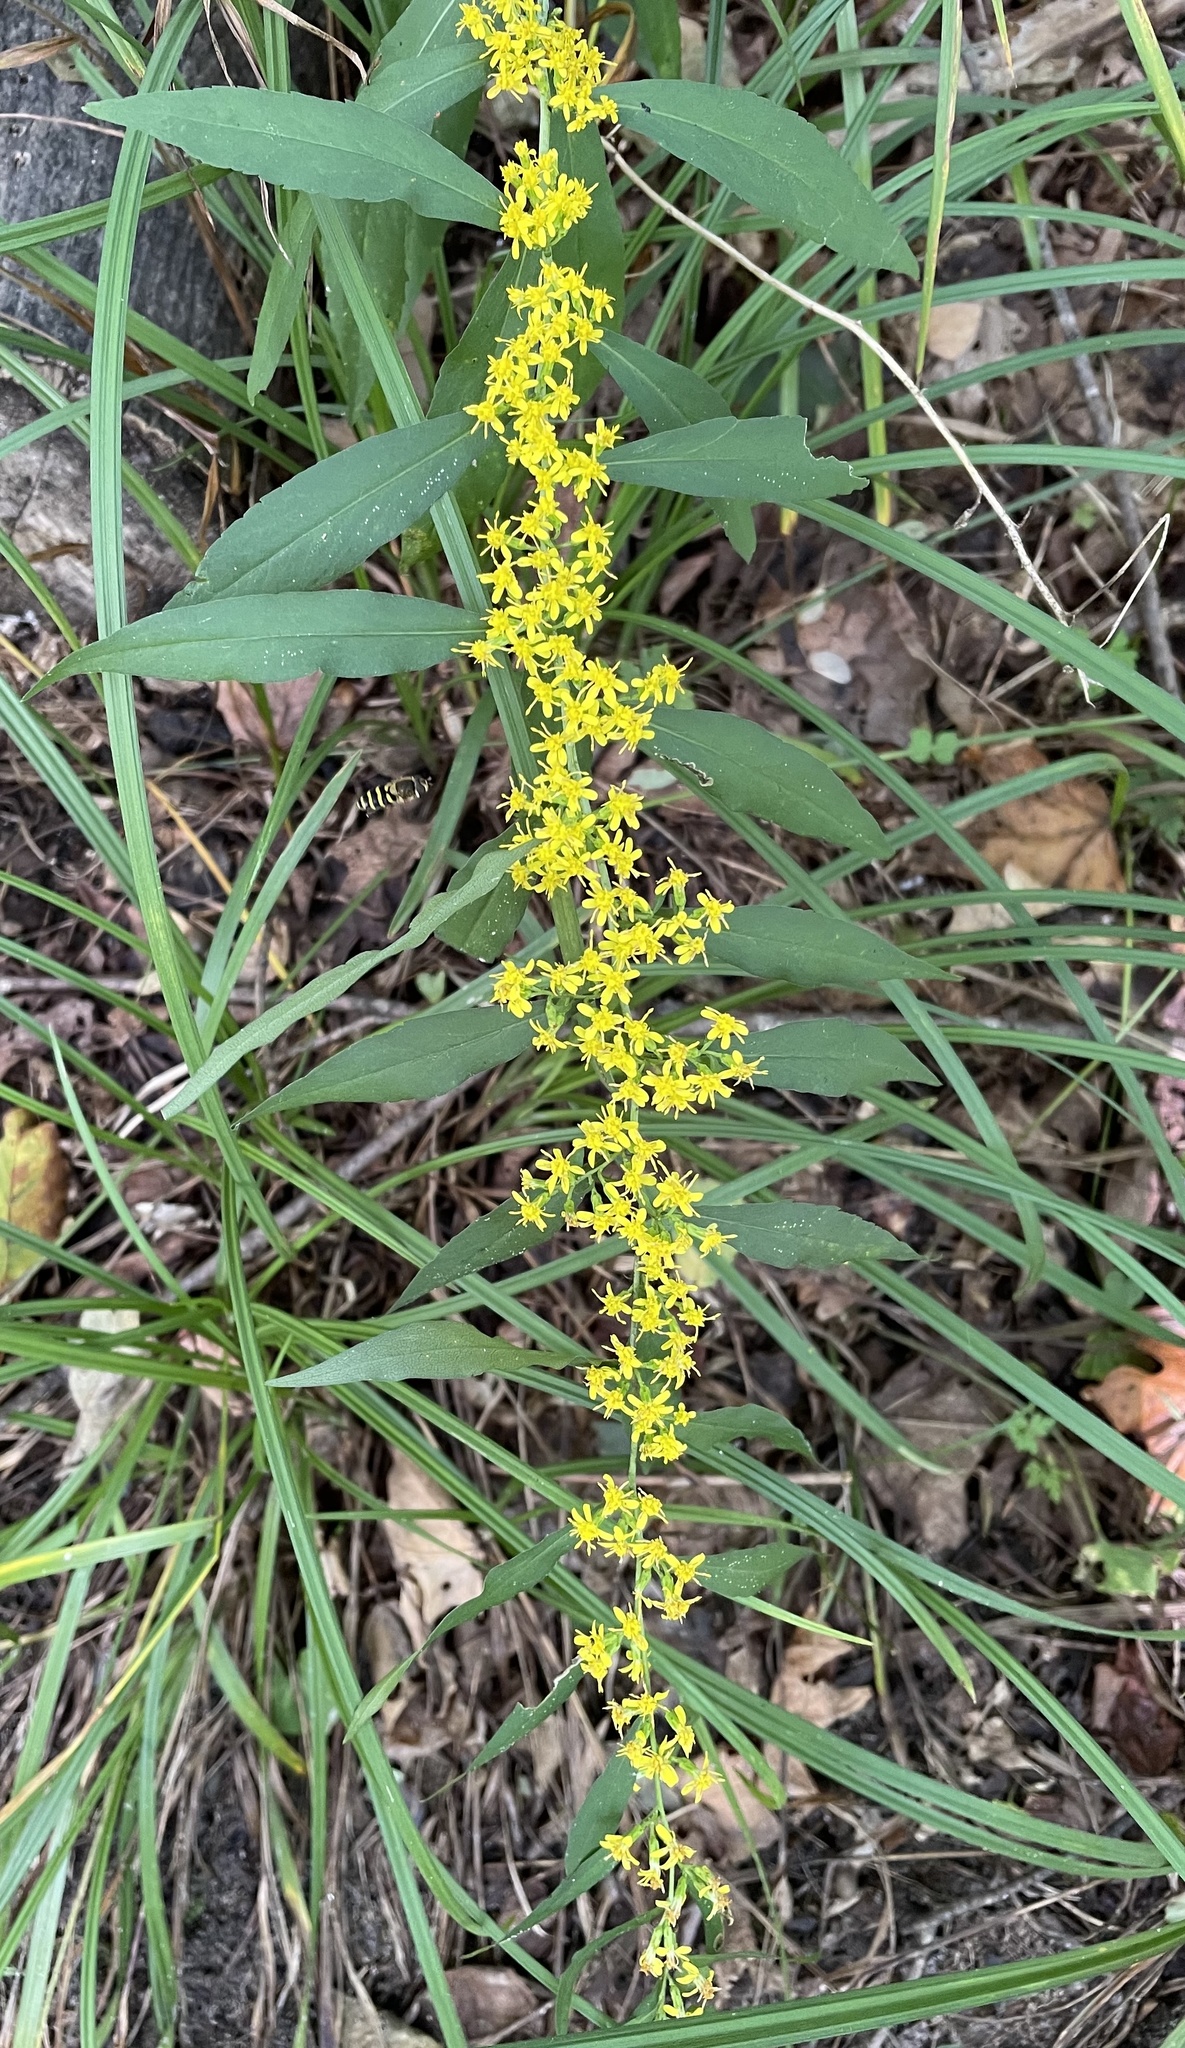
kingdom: Plantae
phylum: Tracheophyta
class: Magnoliopsida
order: Asterales
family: Asteraceae
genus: Solidago
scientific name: Solidago caesia
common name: Woodland goldenrod
